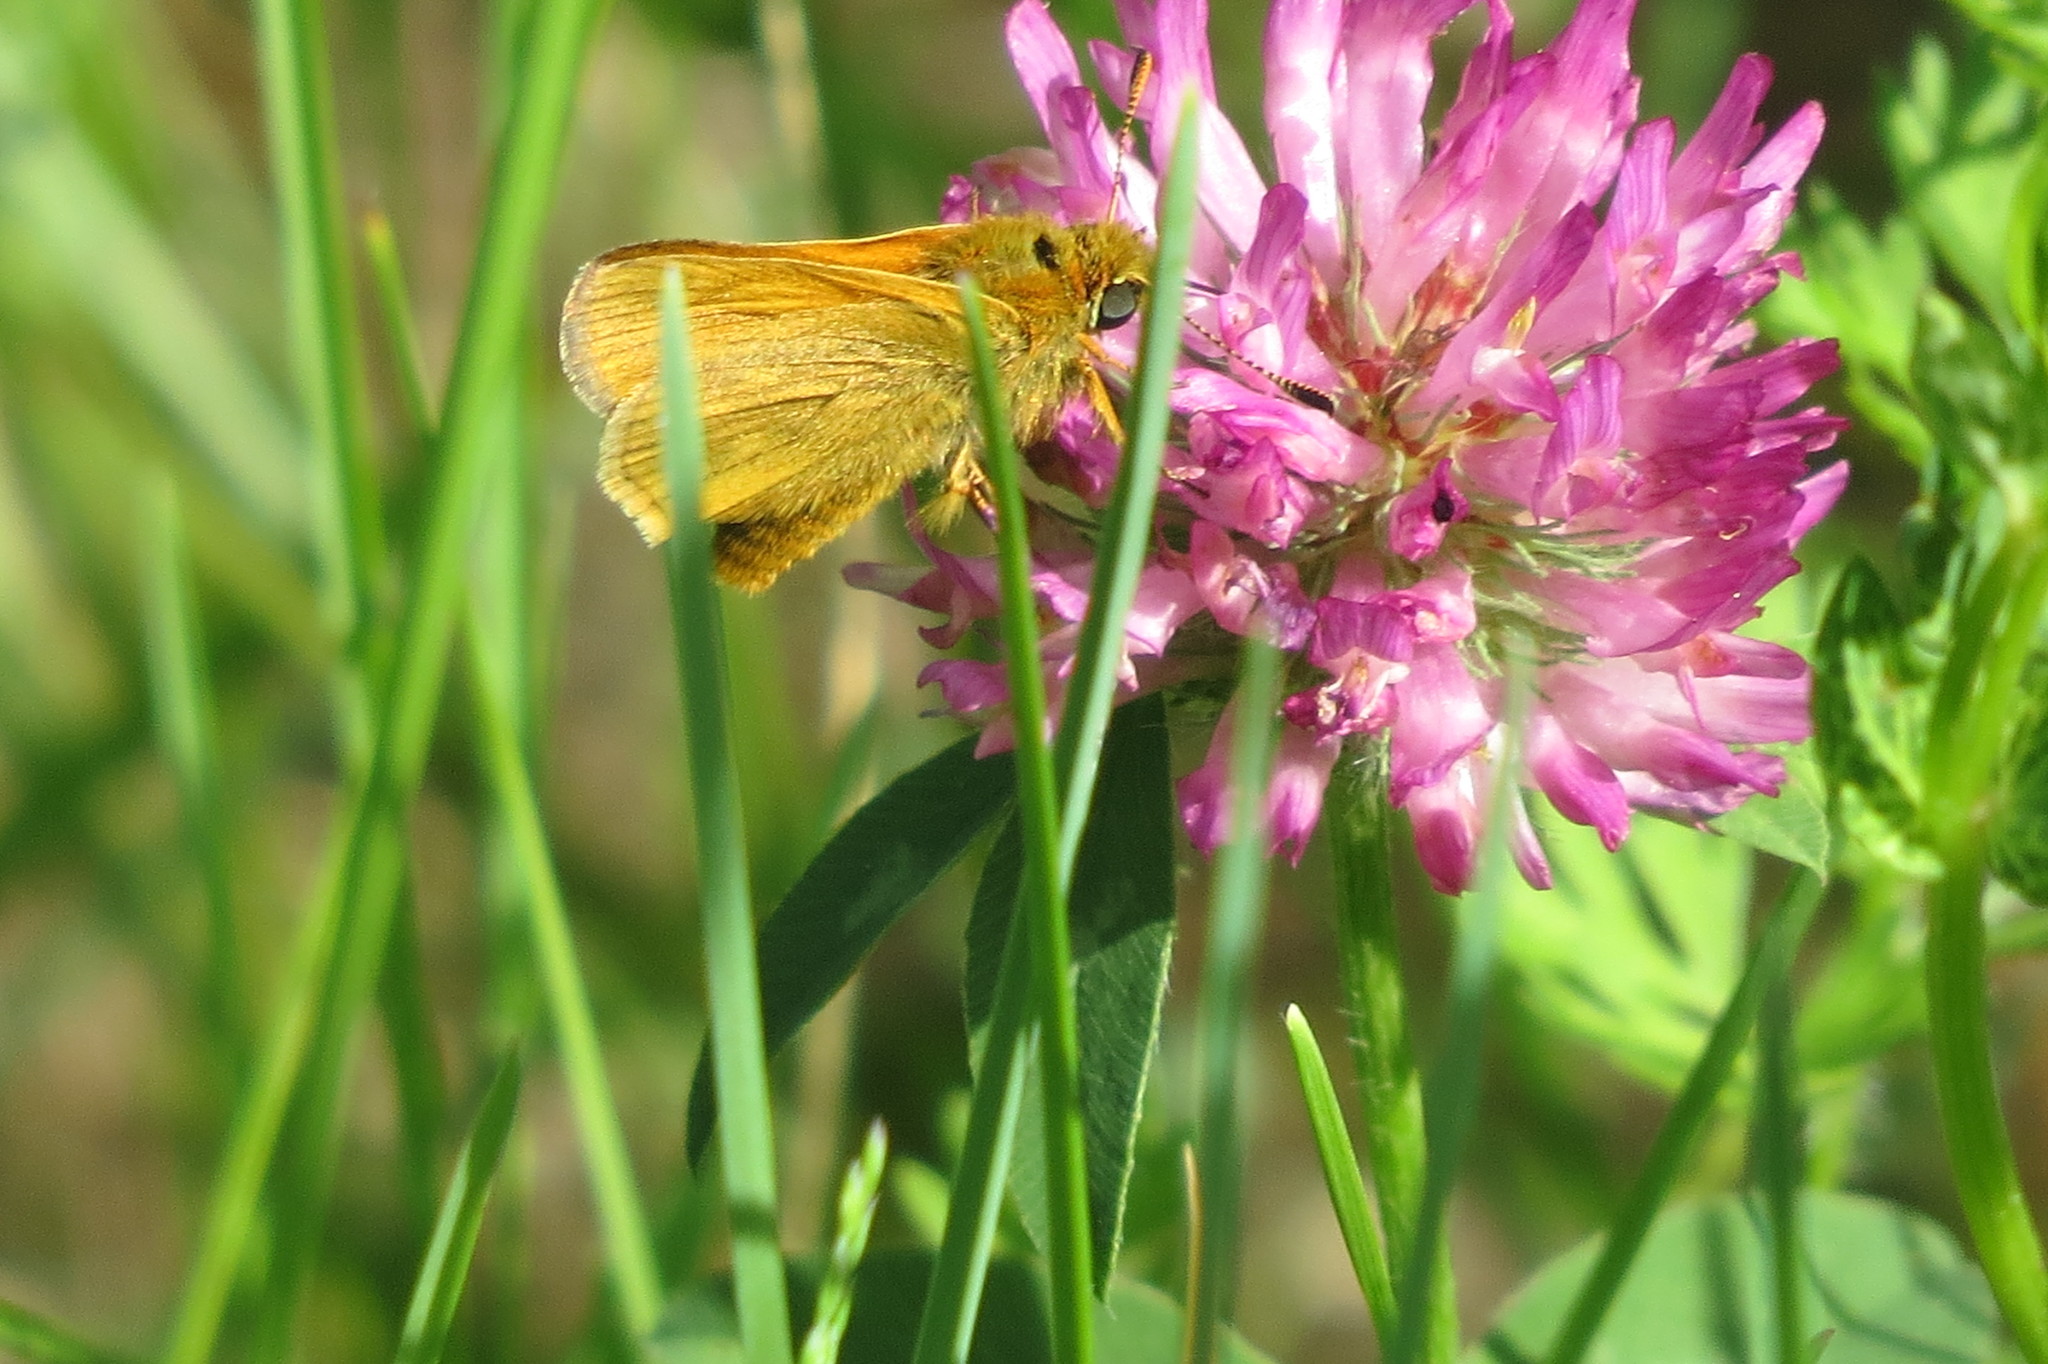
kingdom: Animalia
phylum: Arthropoda
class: Insecta
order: Lepidoptera
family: Hesperiidae
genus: Ochlodes
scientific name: Ochlodes venata
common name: Large skipper
